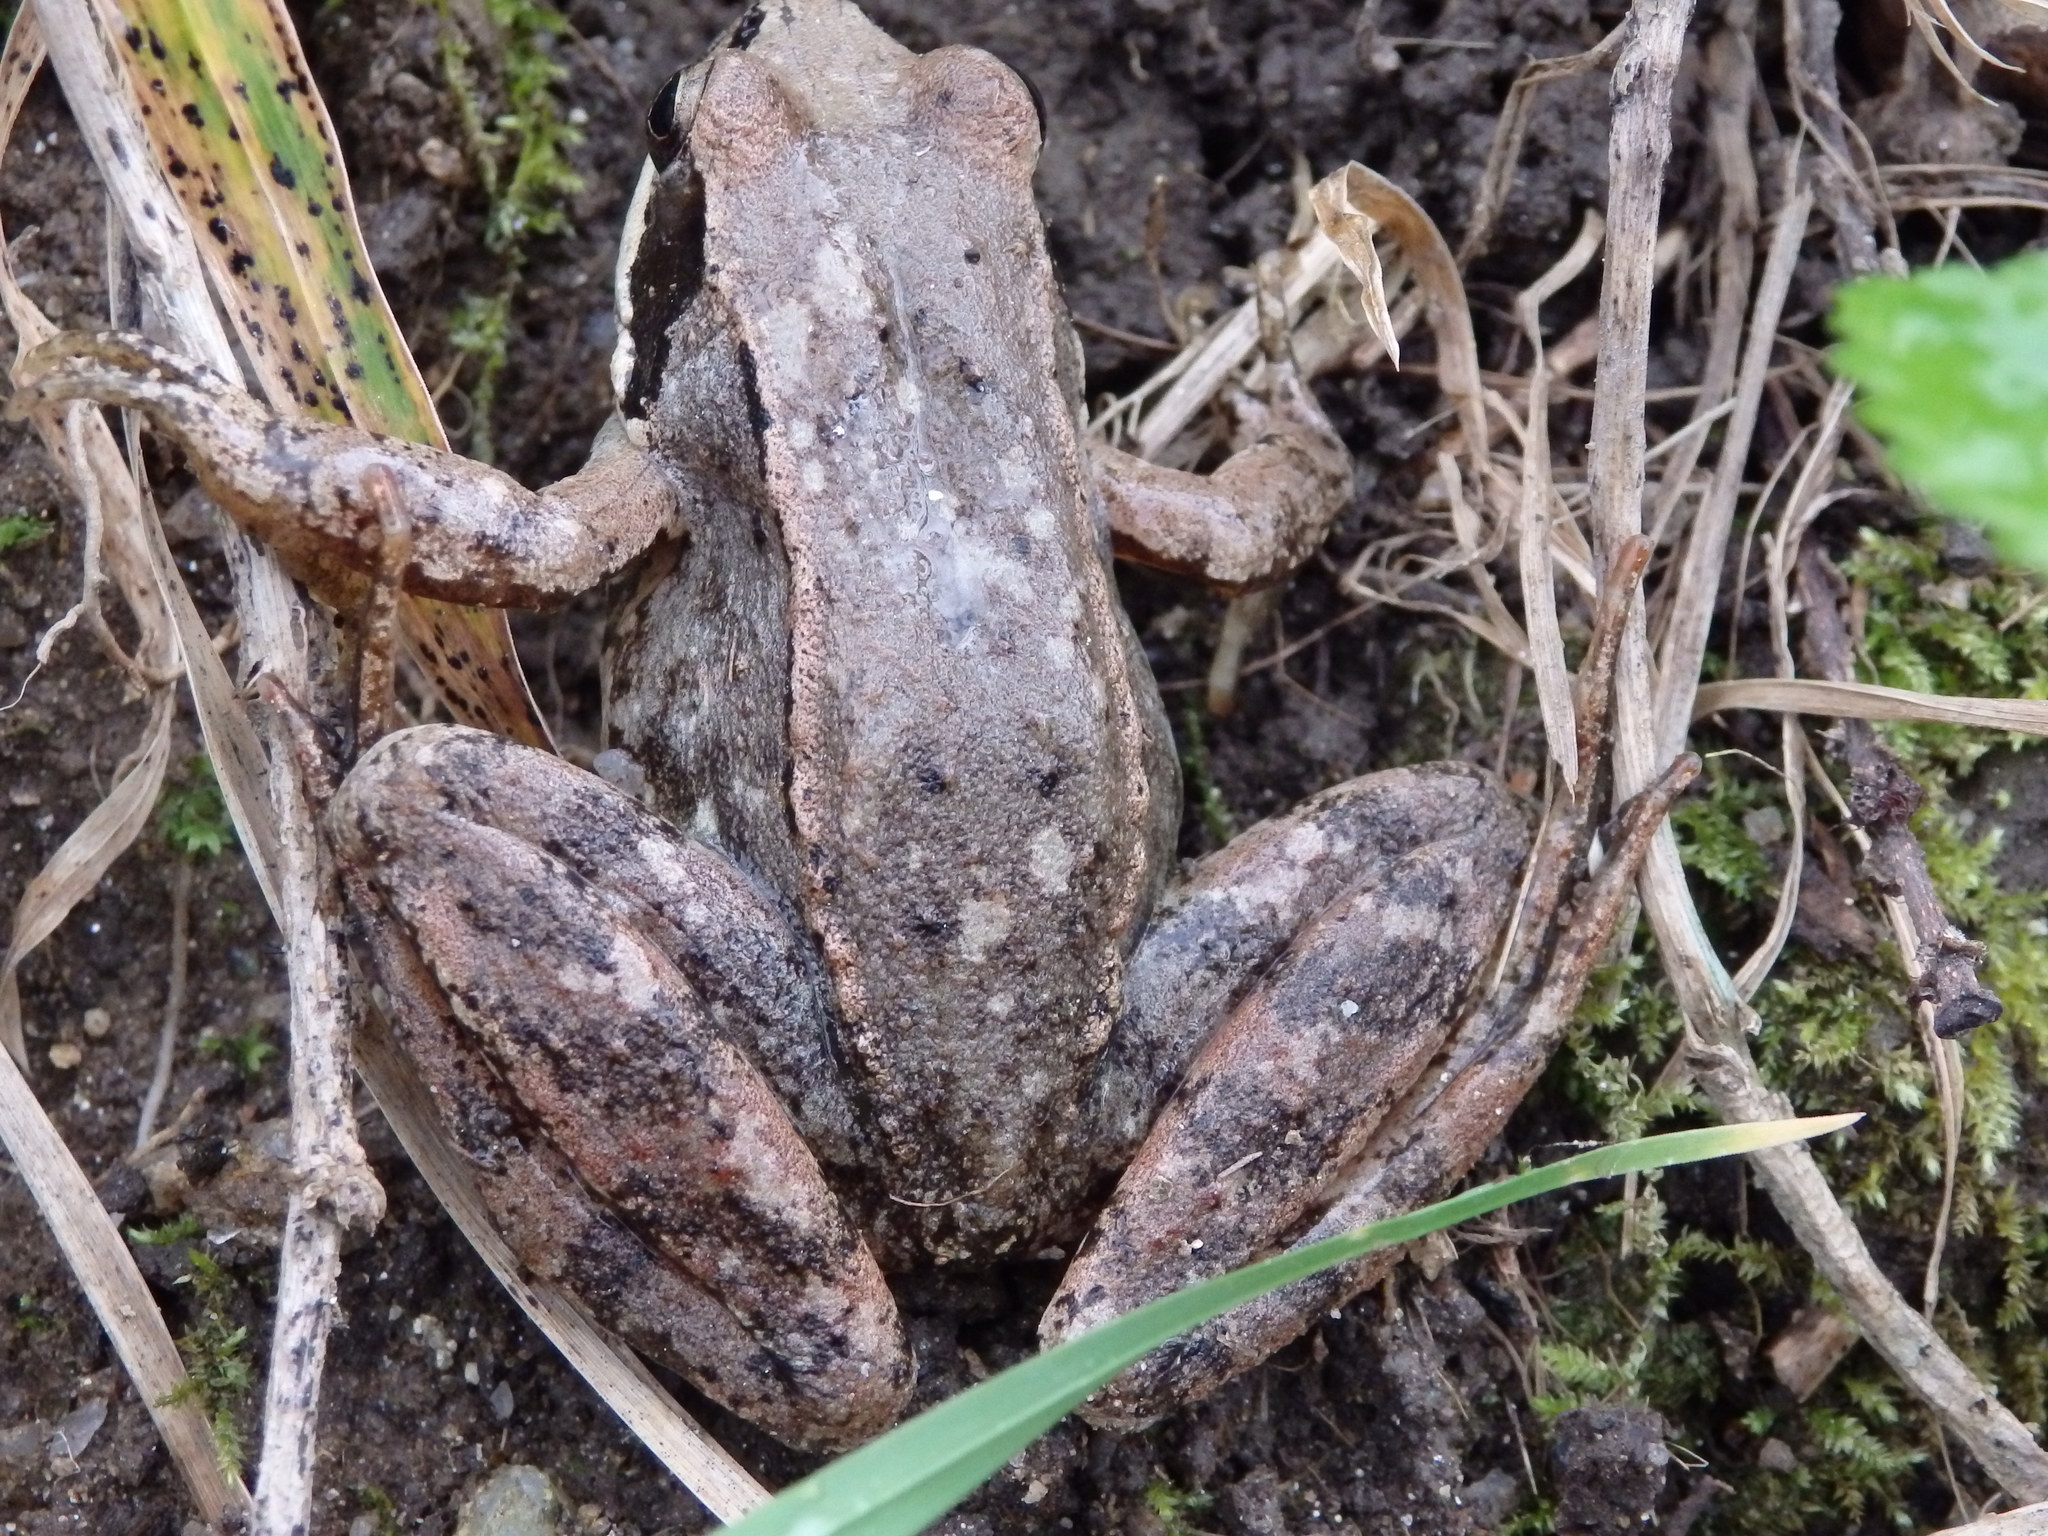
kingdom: Animalia
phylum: Chordata
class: Amphibia
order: Anura
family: Ranidae
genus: Rana
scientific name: Rana iberica
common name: Iberian frog
